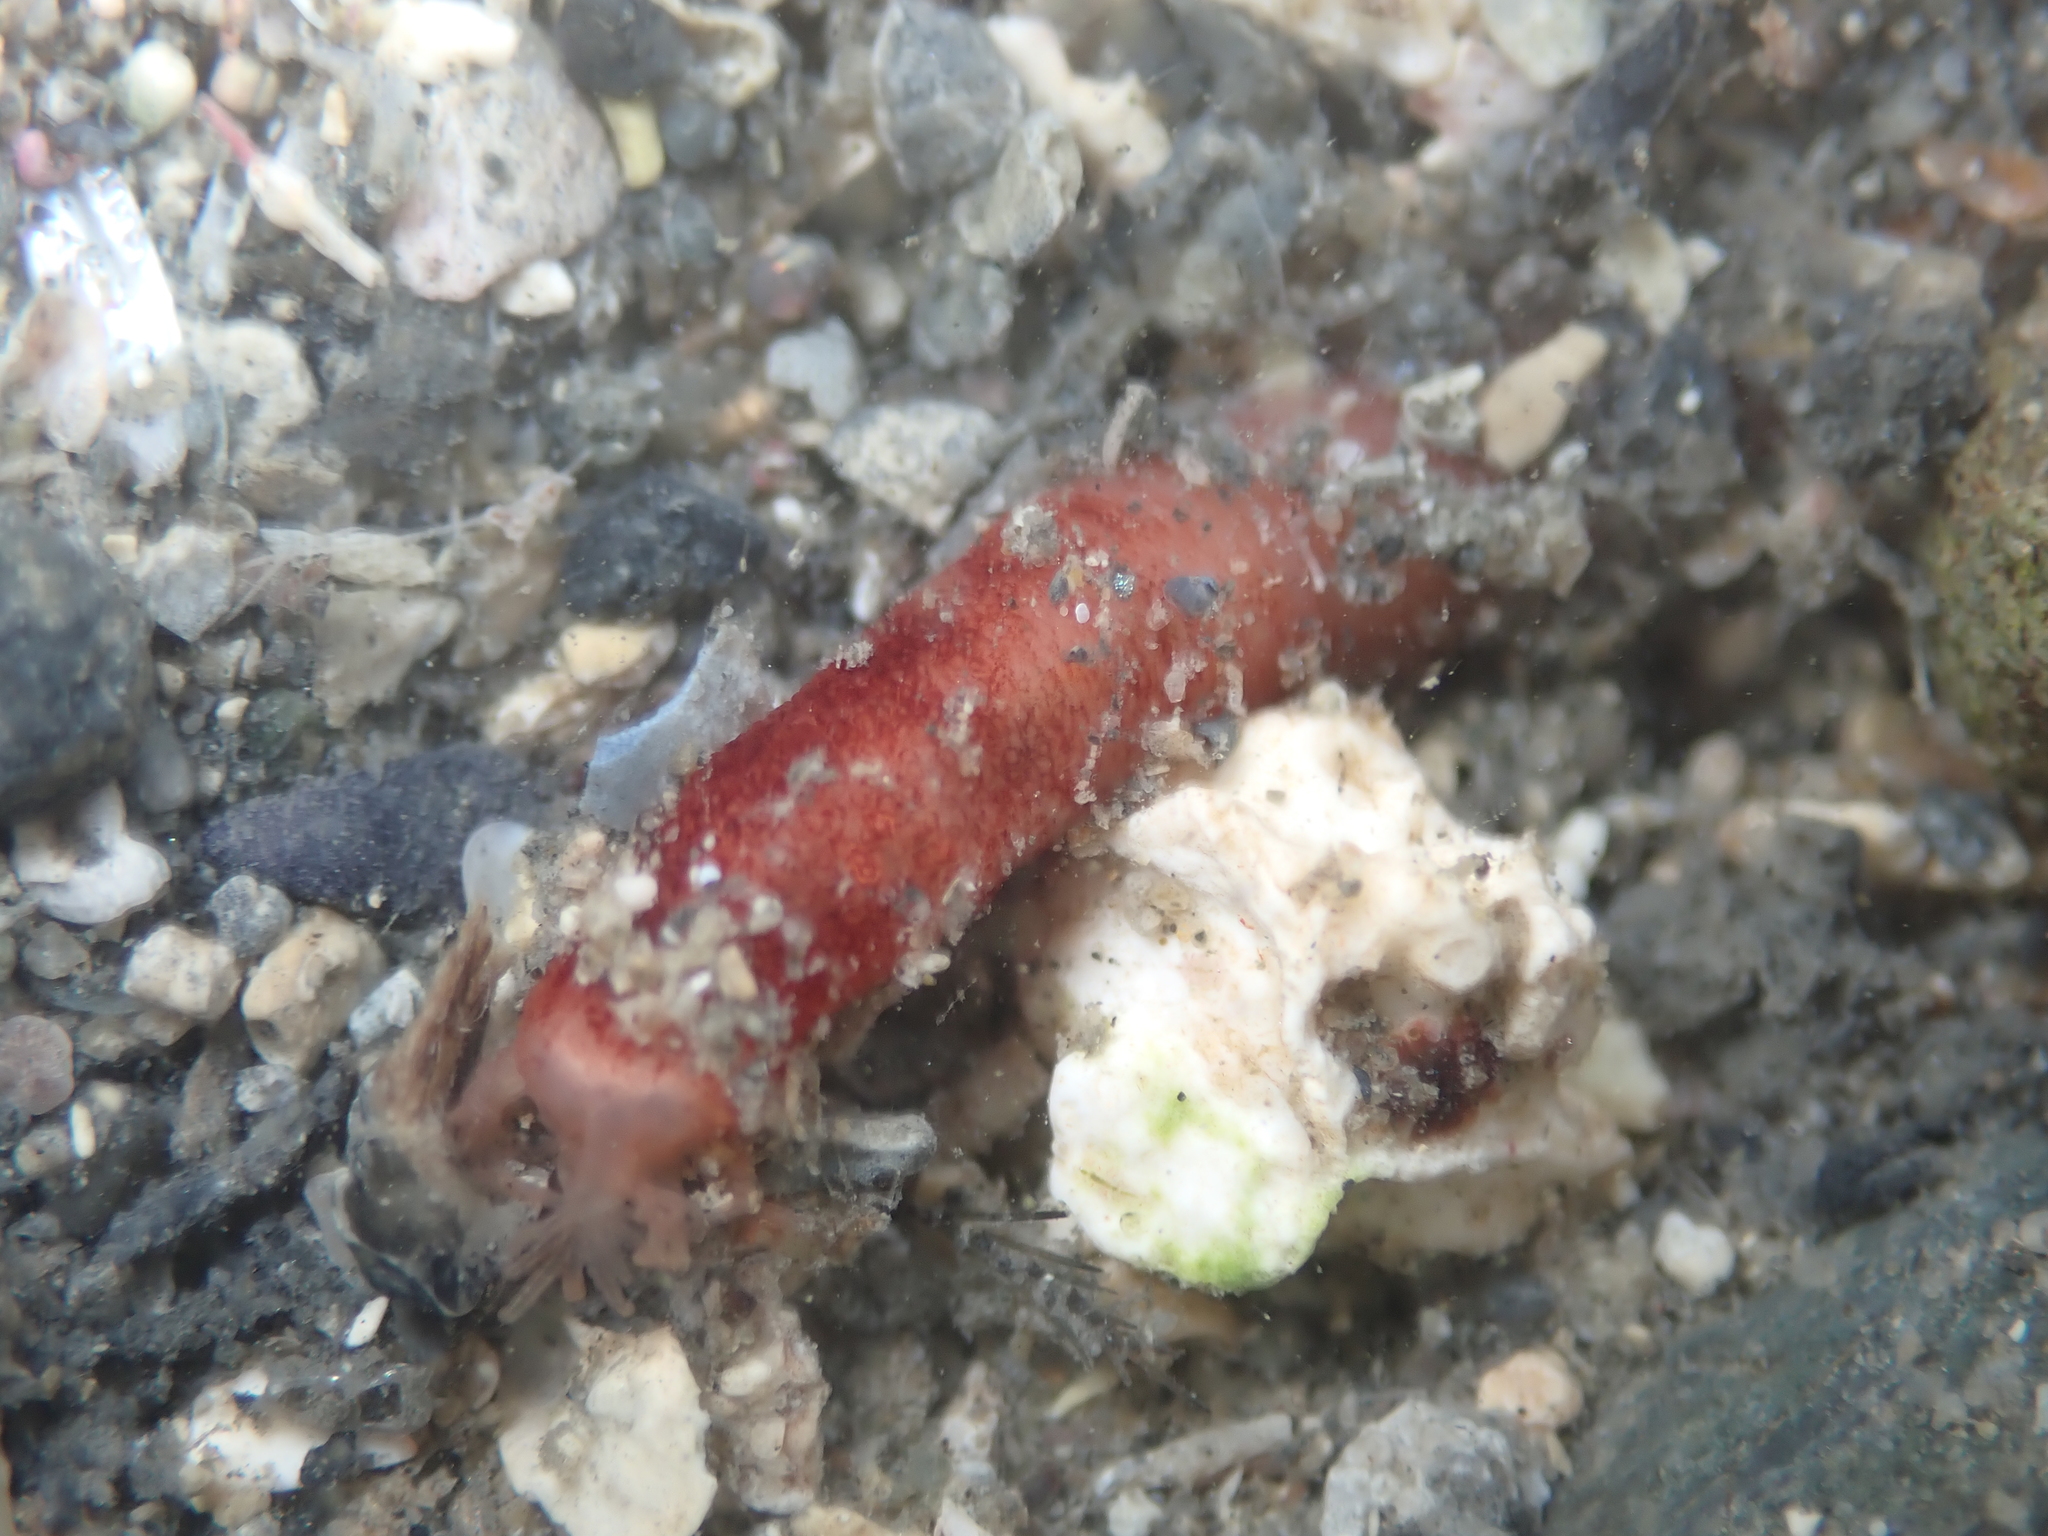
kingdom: Animalia
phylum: Echinodermata
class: Holothuroidea
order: Apodida
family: Chiridotidae
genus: Taeniogyrus
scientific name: Taeniogyrus dunedinensis
